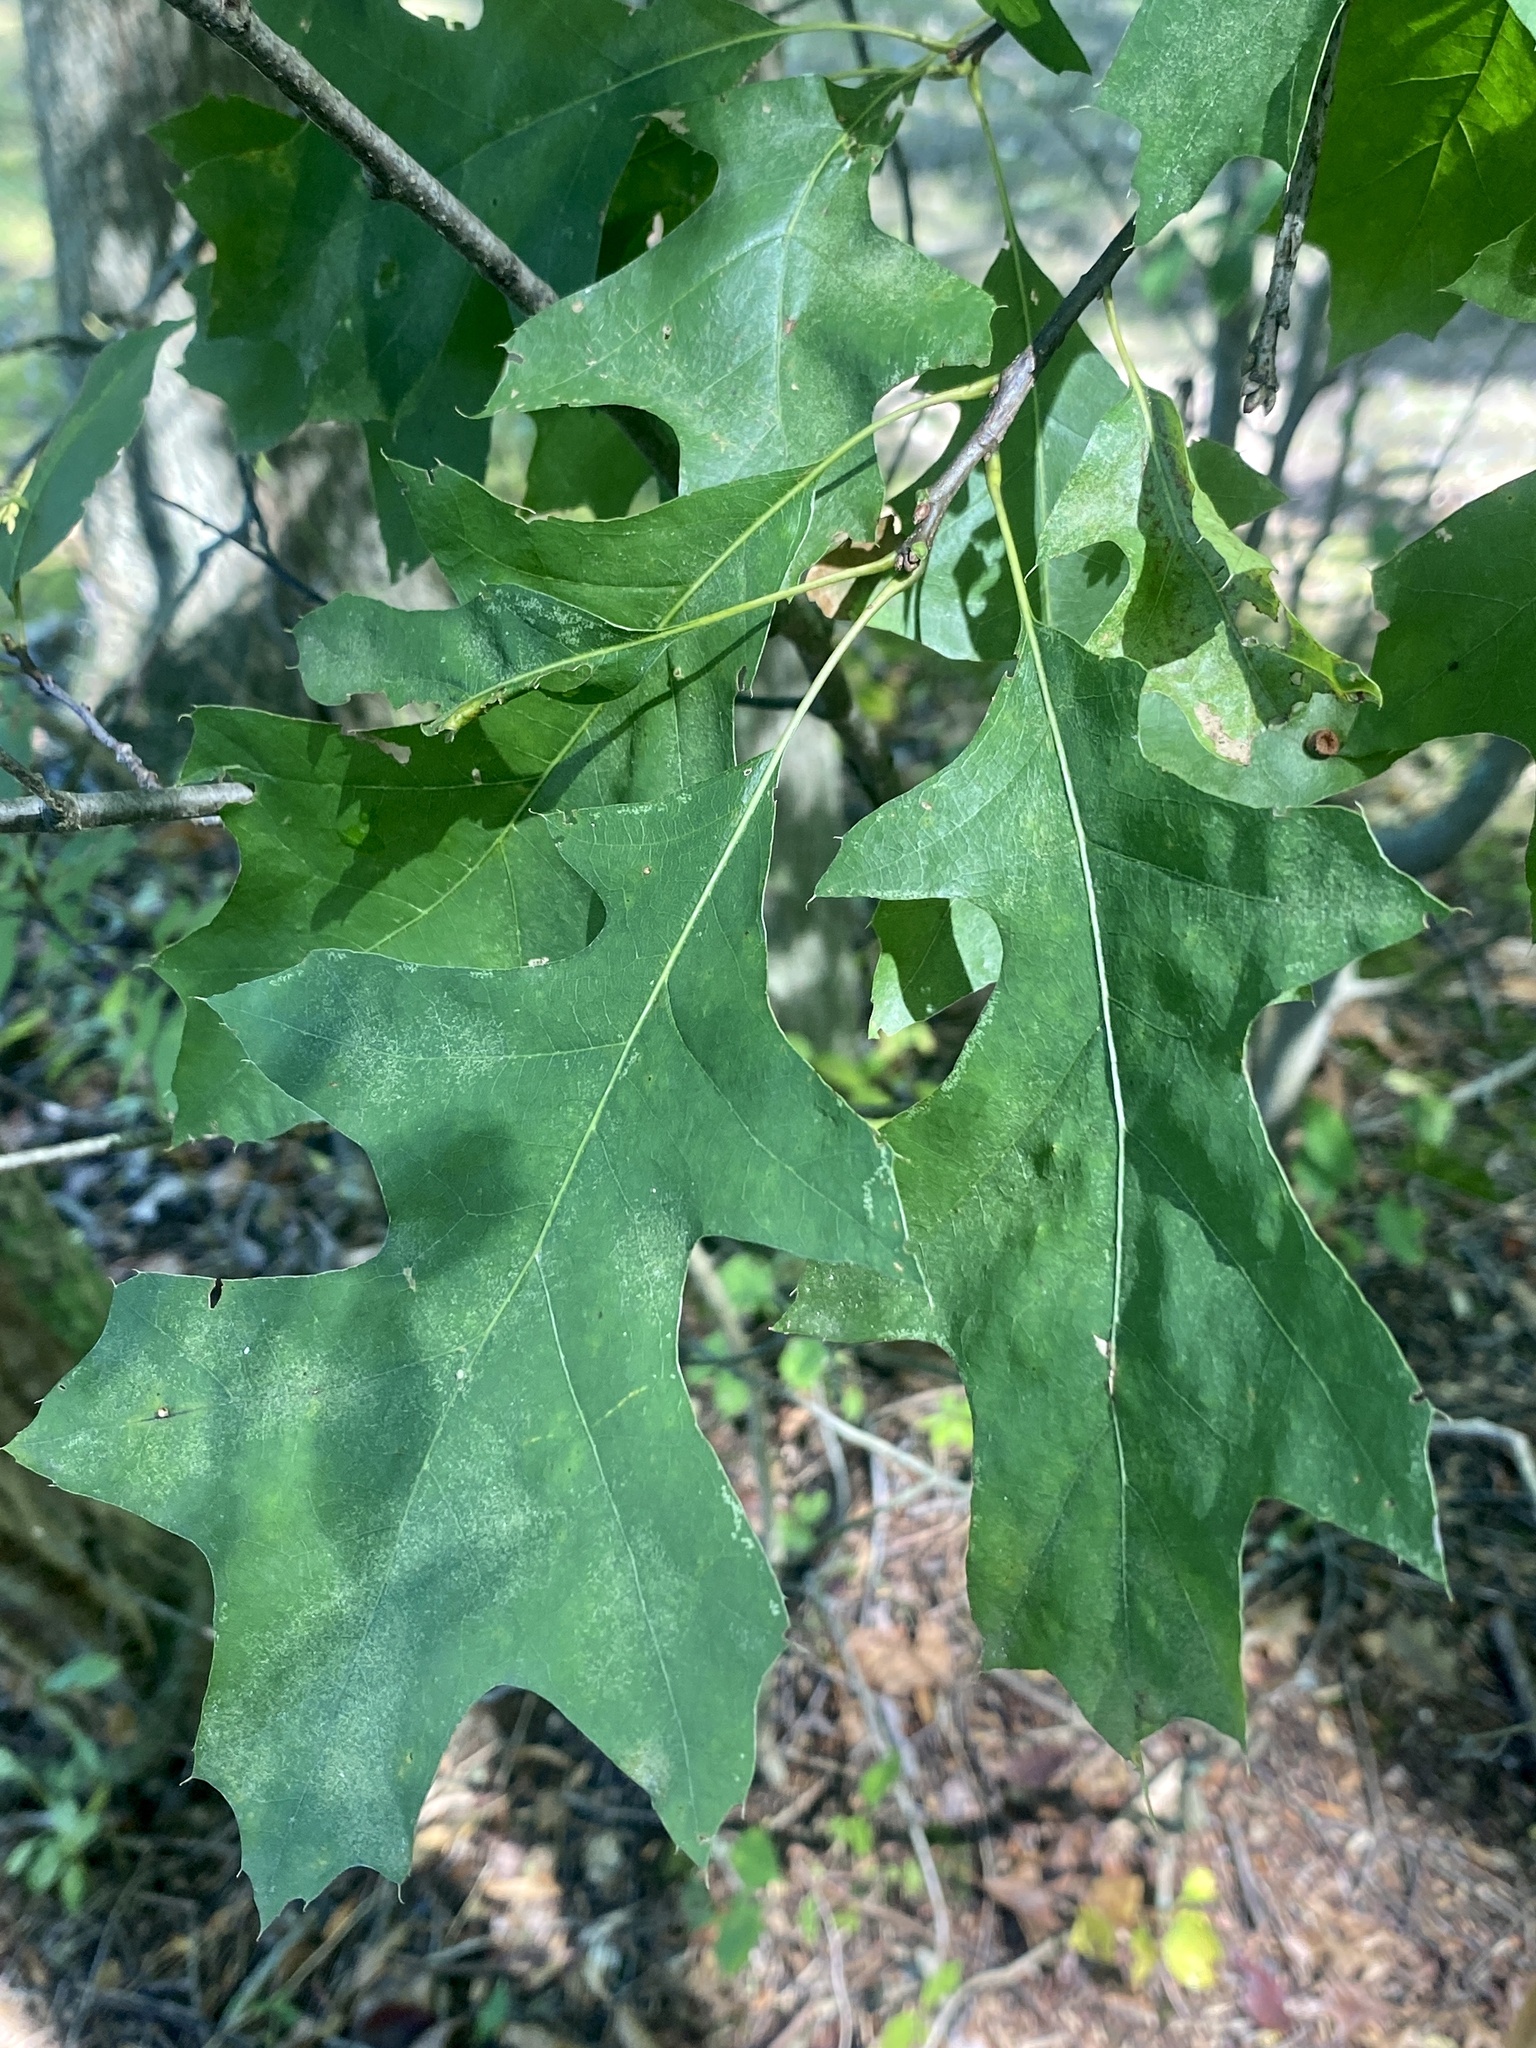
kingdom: Animalia
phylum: Arthropoda
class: Insecta
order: Hymenoptera
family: Cynipidae
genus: Callirhytis
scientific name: Callirhytis
